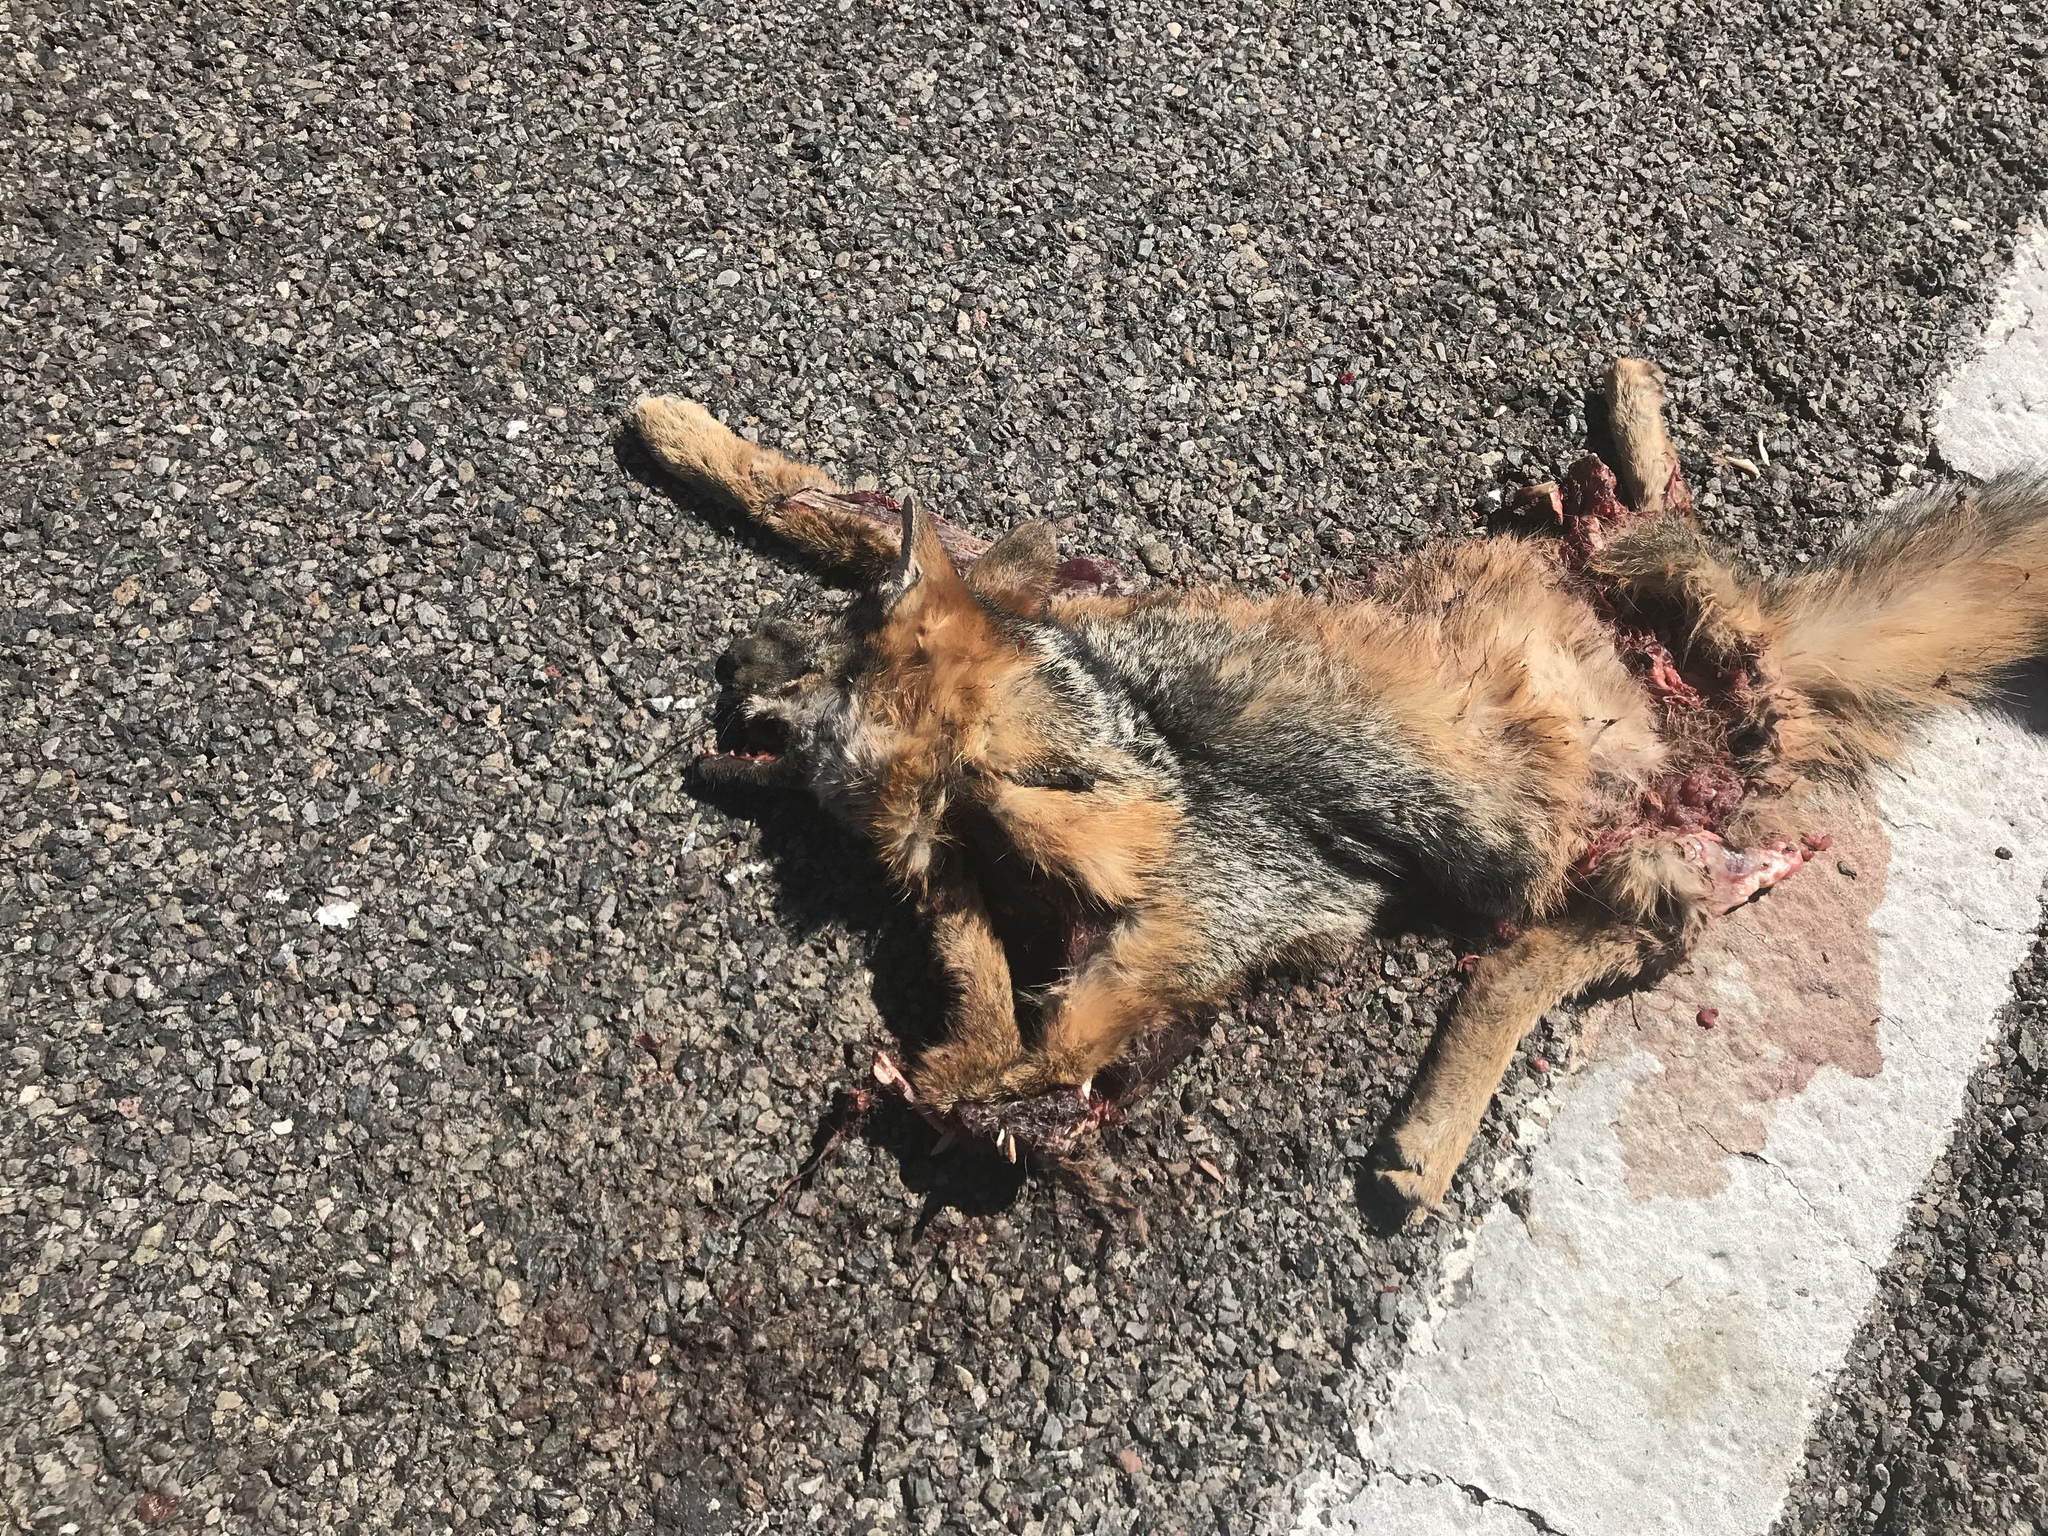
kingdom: Animalia
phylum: Chordata
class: Mammalia
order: Carnivora
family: Canidae
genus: Urocyon
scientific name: Urocyon cinereoargenteus
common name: Gray fox
